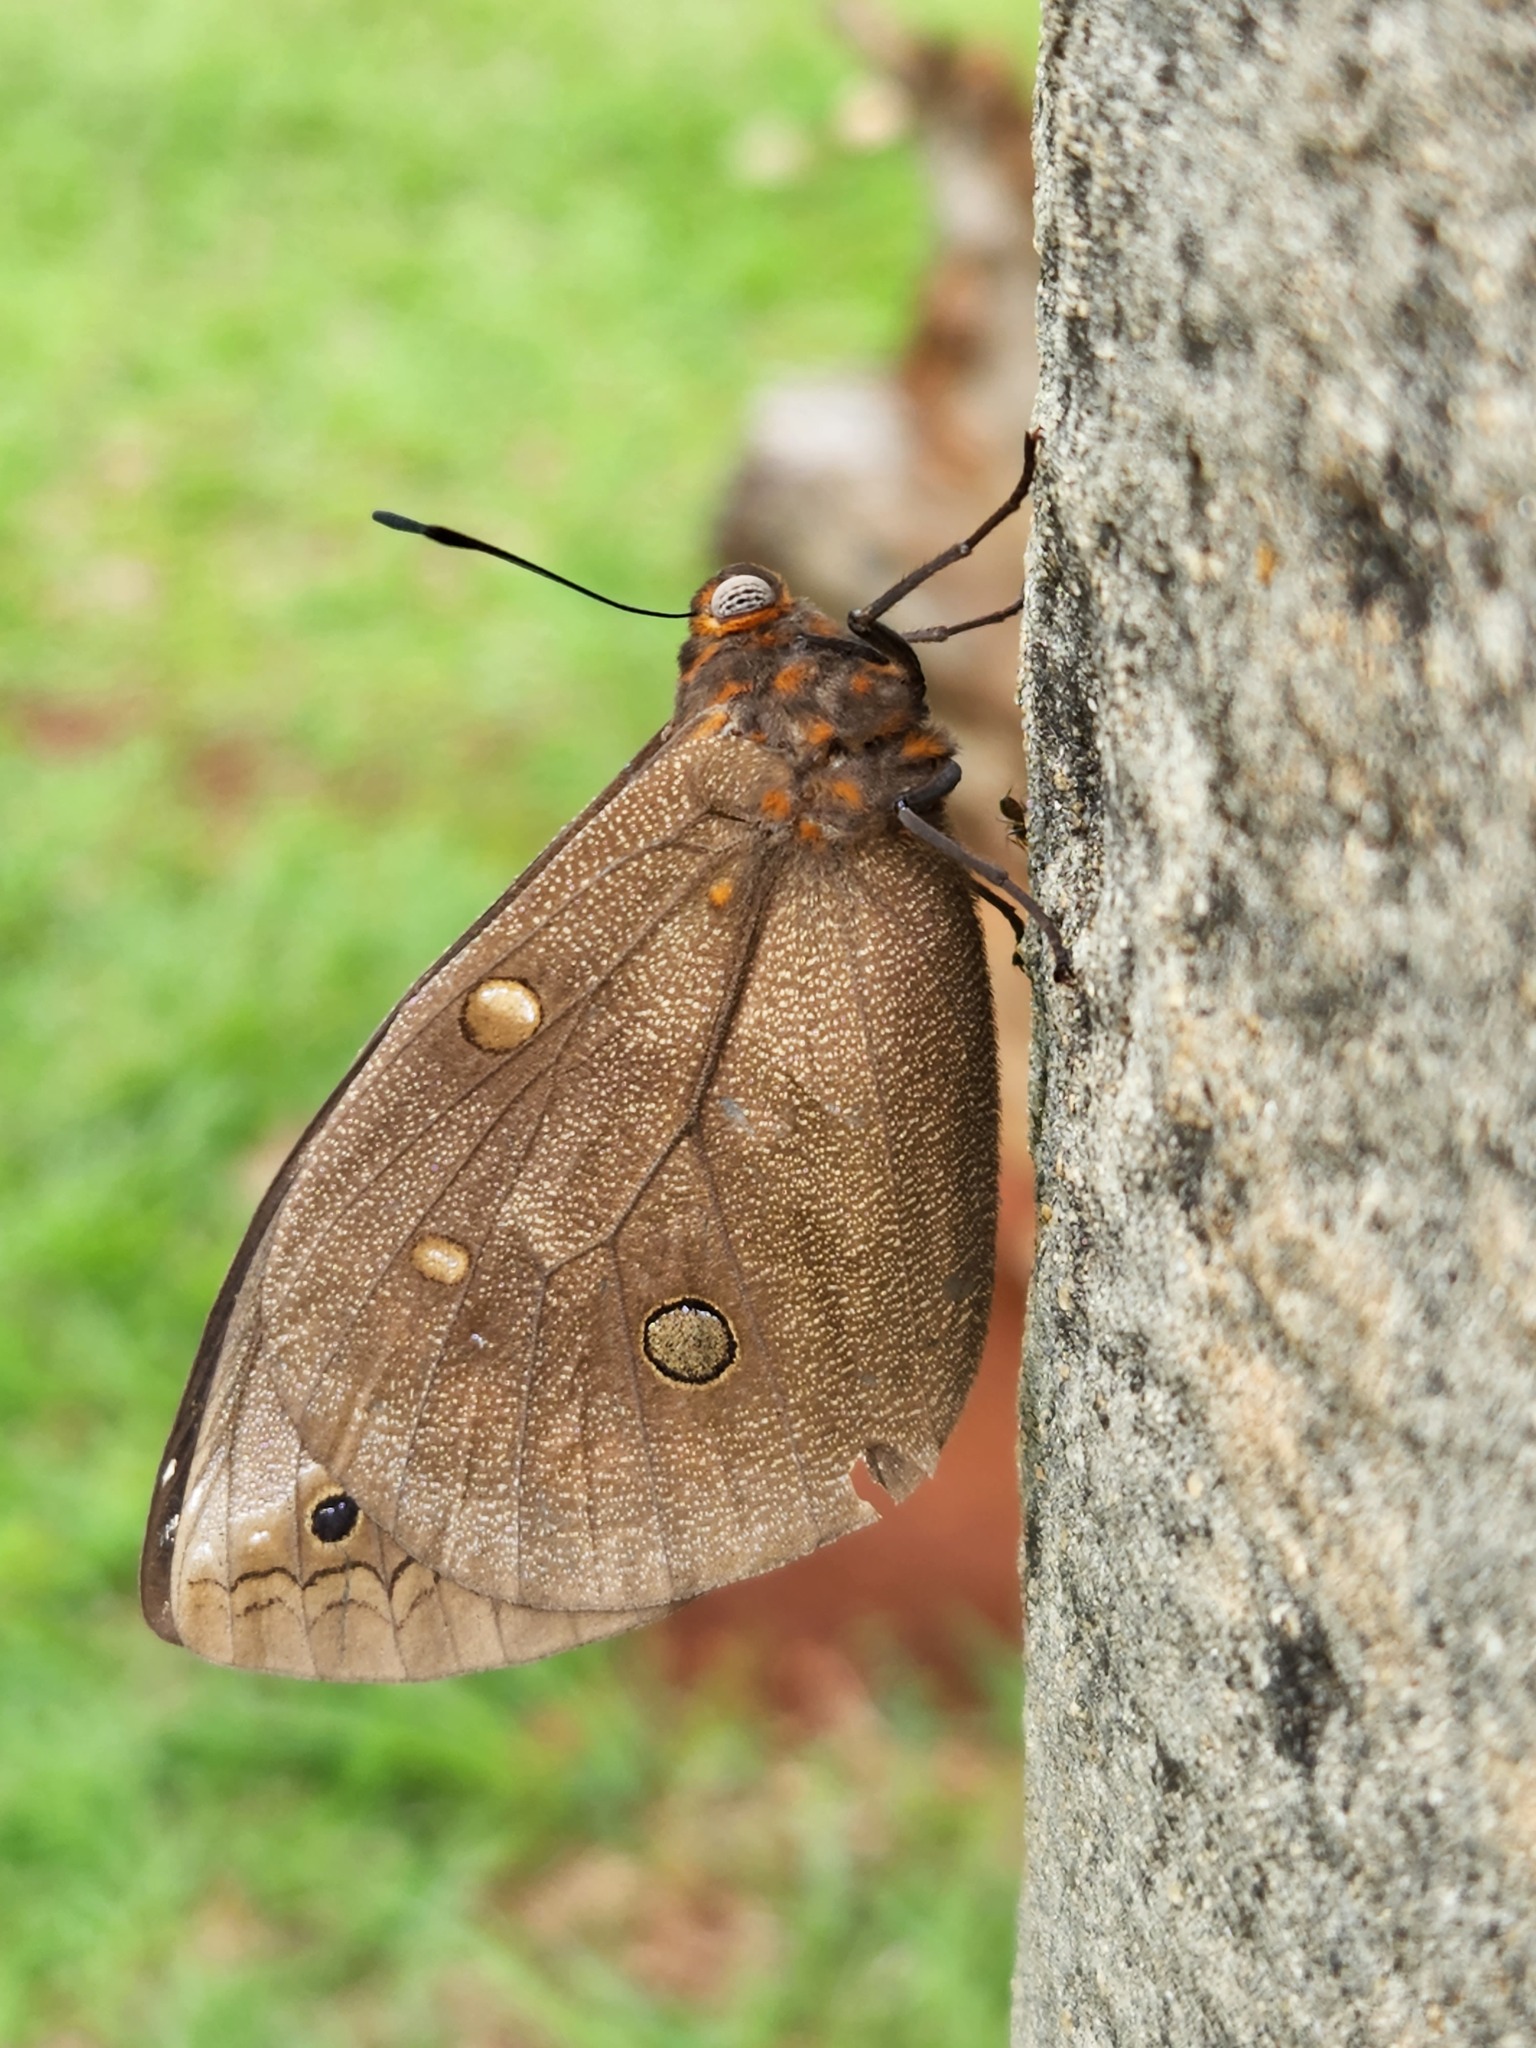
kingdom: Animalia
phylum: Arthropoda
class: Insecta
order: Lepidoptera
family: Nymphalidae
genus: Brassolis
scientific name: Brassolis sophorae
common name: Coconut caterpillar
